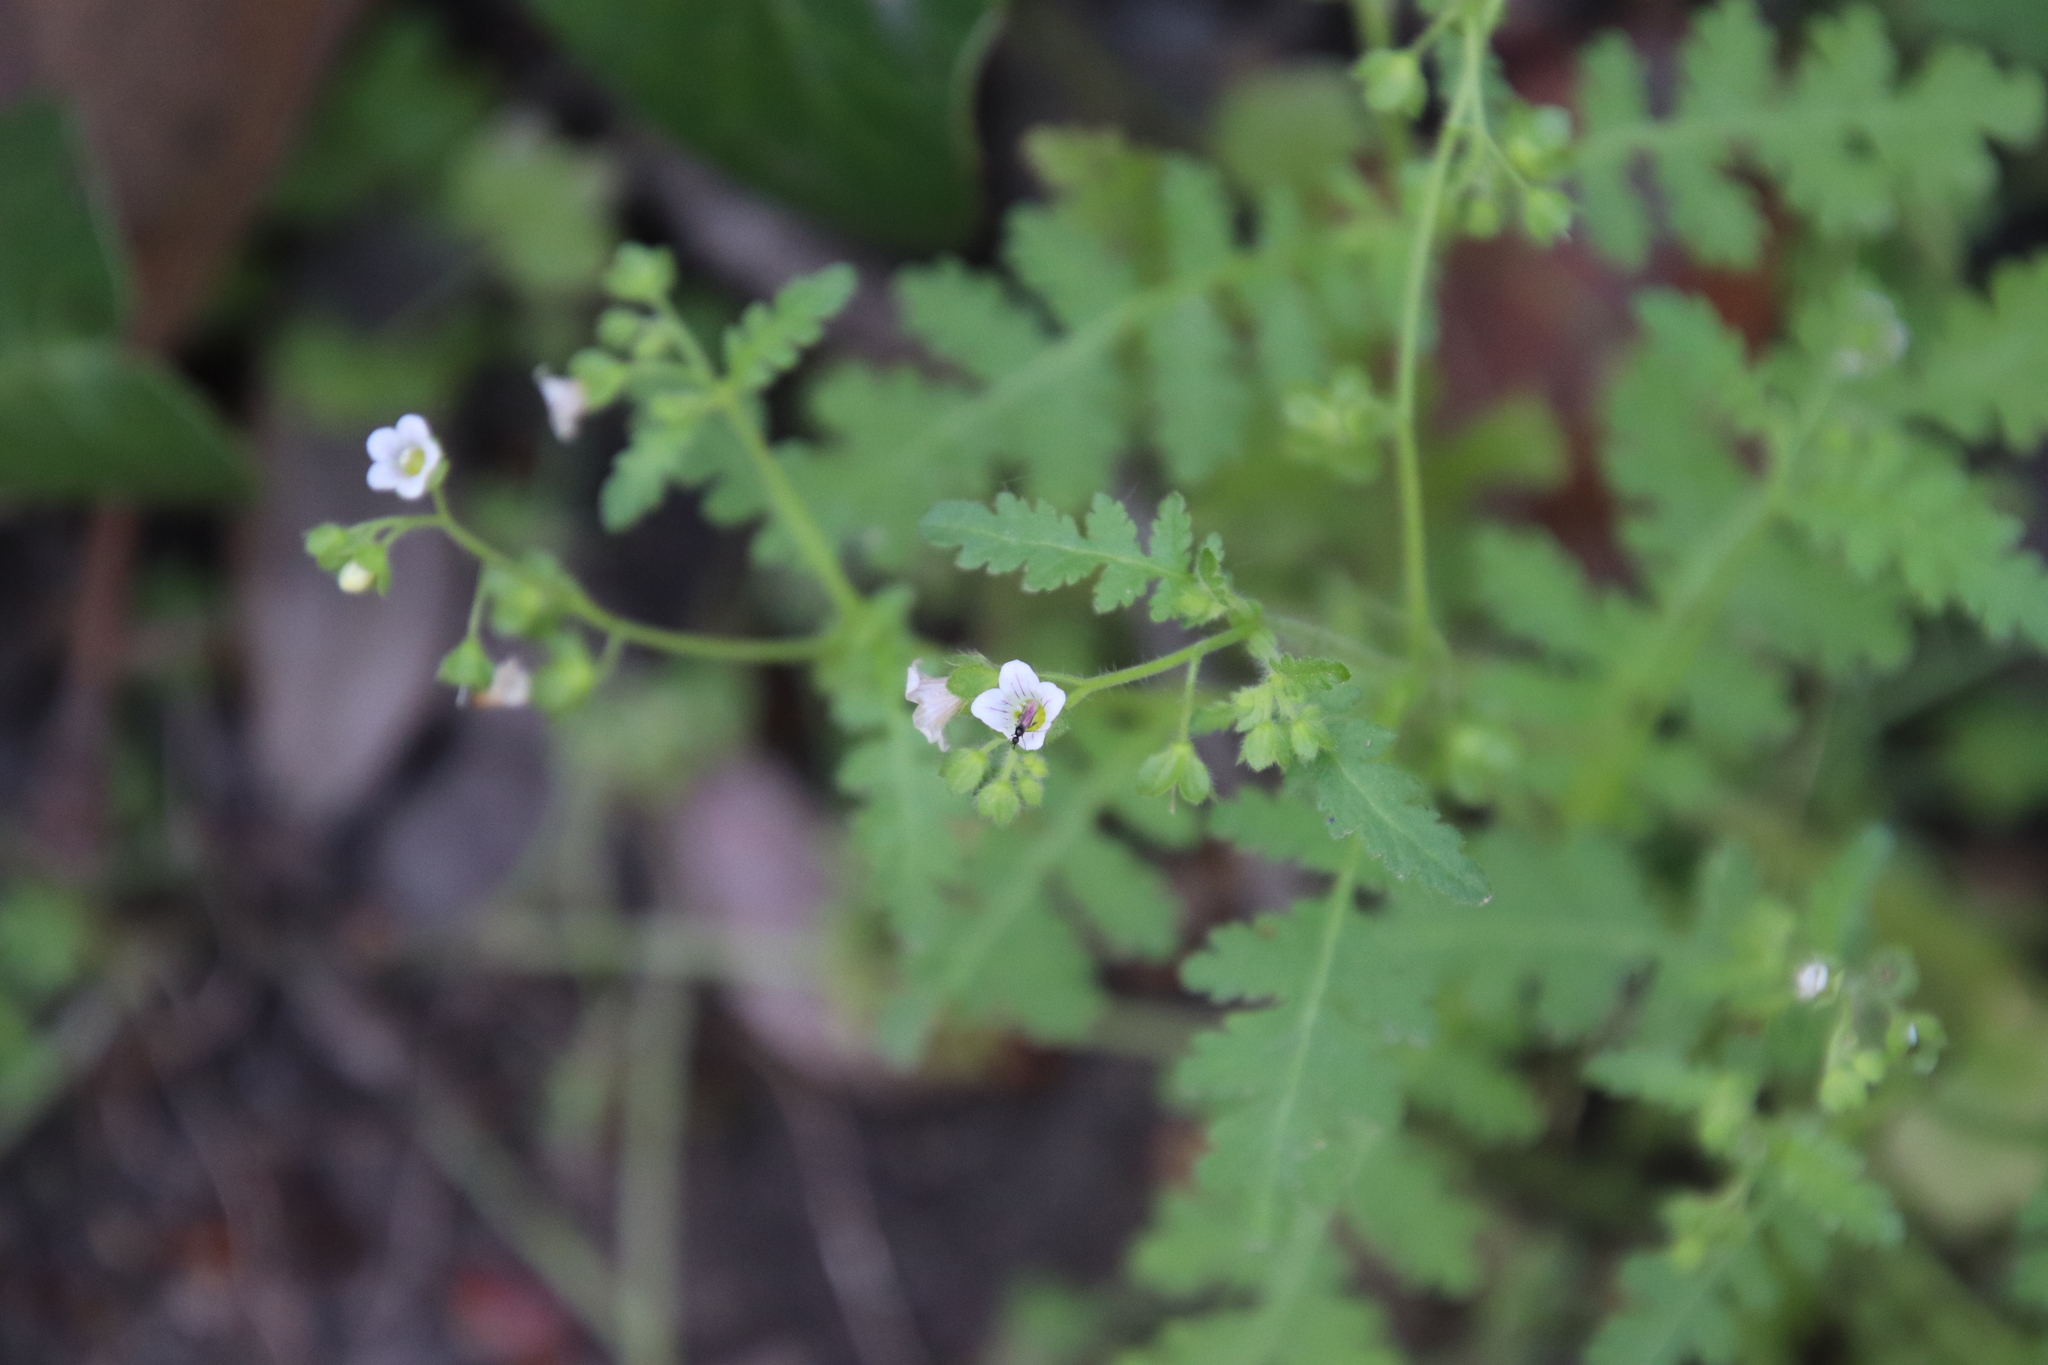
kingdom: Plantae
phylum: Tracheophyta
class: Magnoliopsida
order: Boraginales
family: Hydrophyllaceae
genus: Eucrypta
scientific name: Eucrypta chrysanthemifolia
